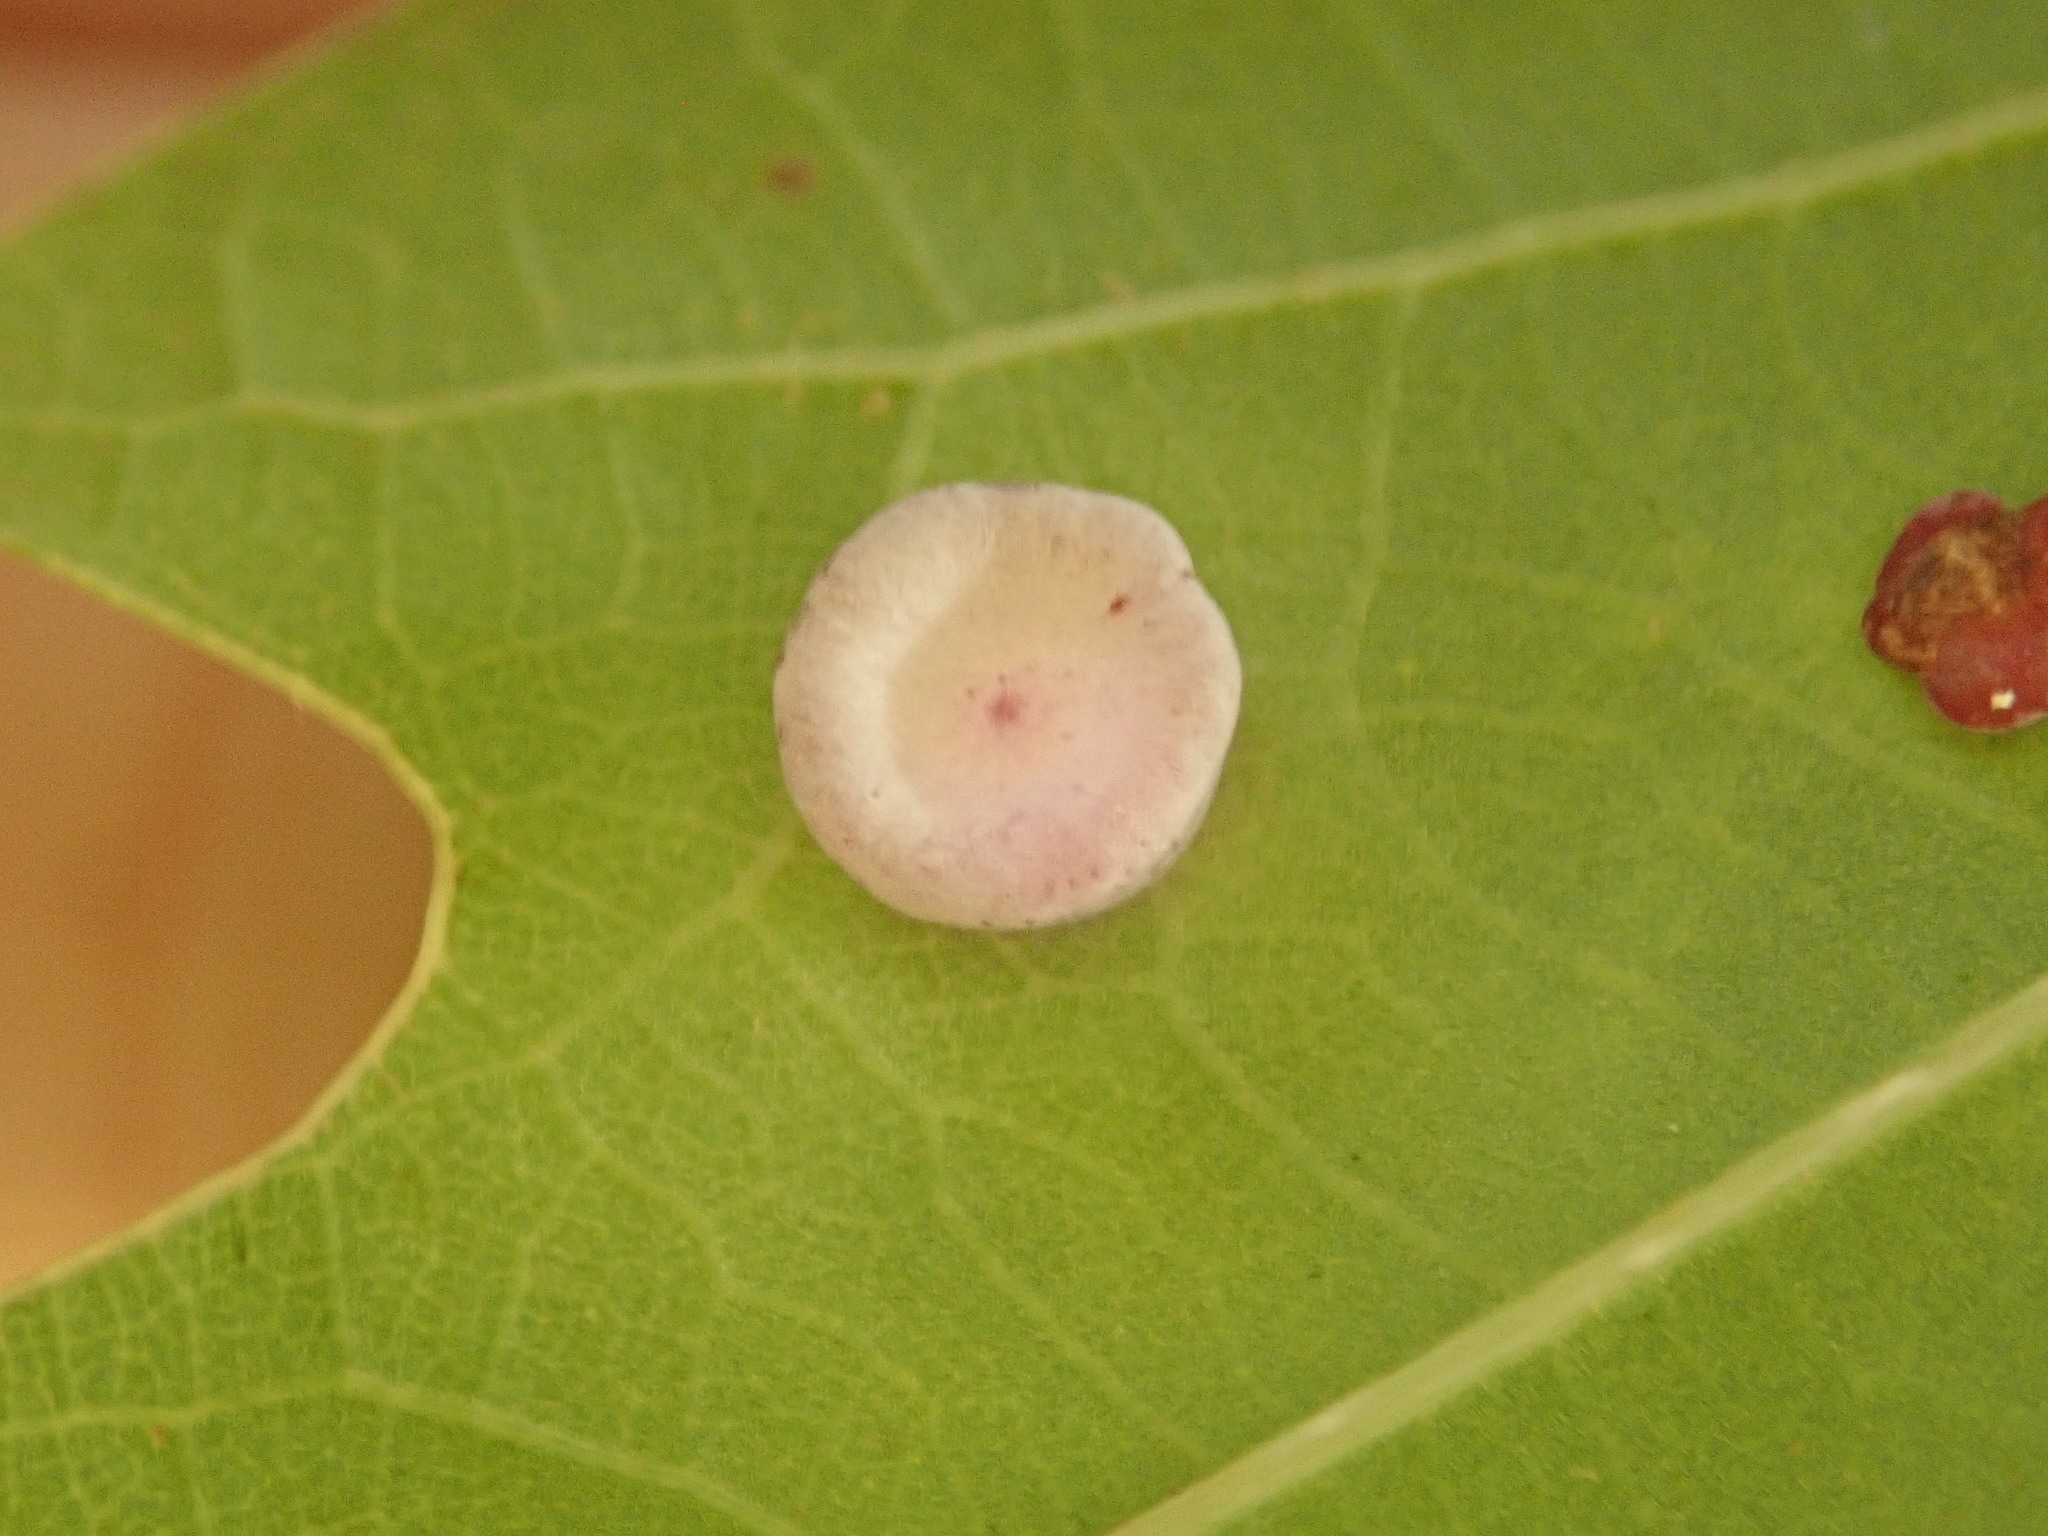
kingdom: Animalia
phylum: Arthropoda
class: Insecta
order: Hymenoptera
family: Cynipidae
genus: Phylloteras
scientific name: Phylloteras poculum
